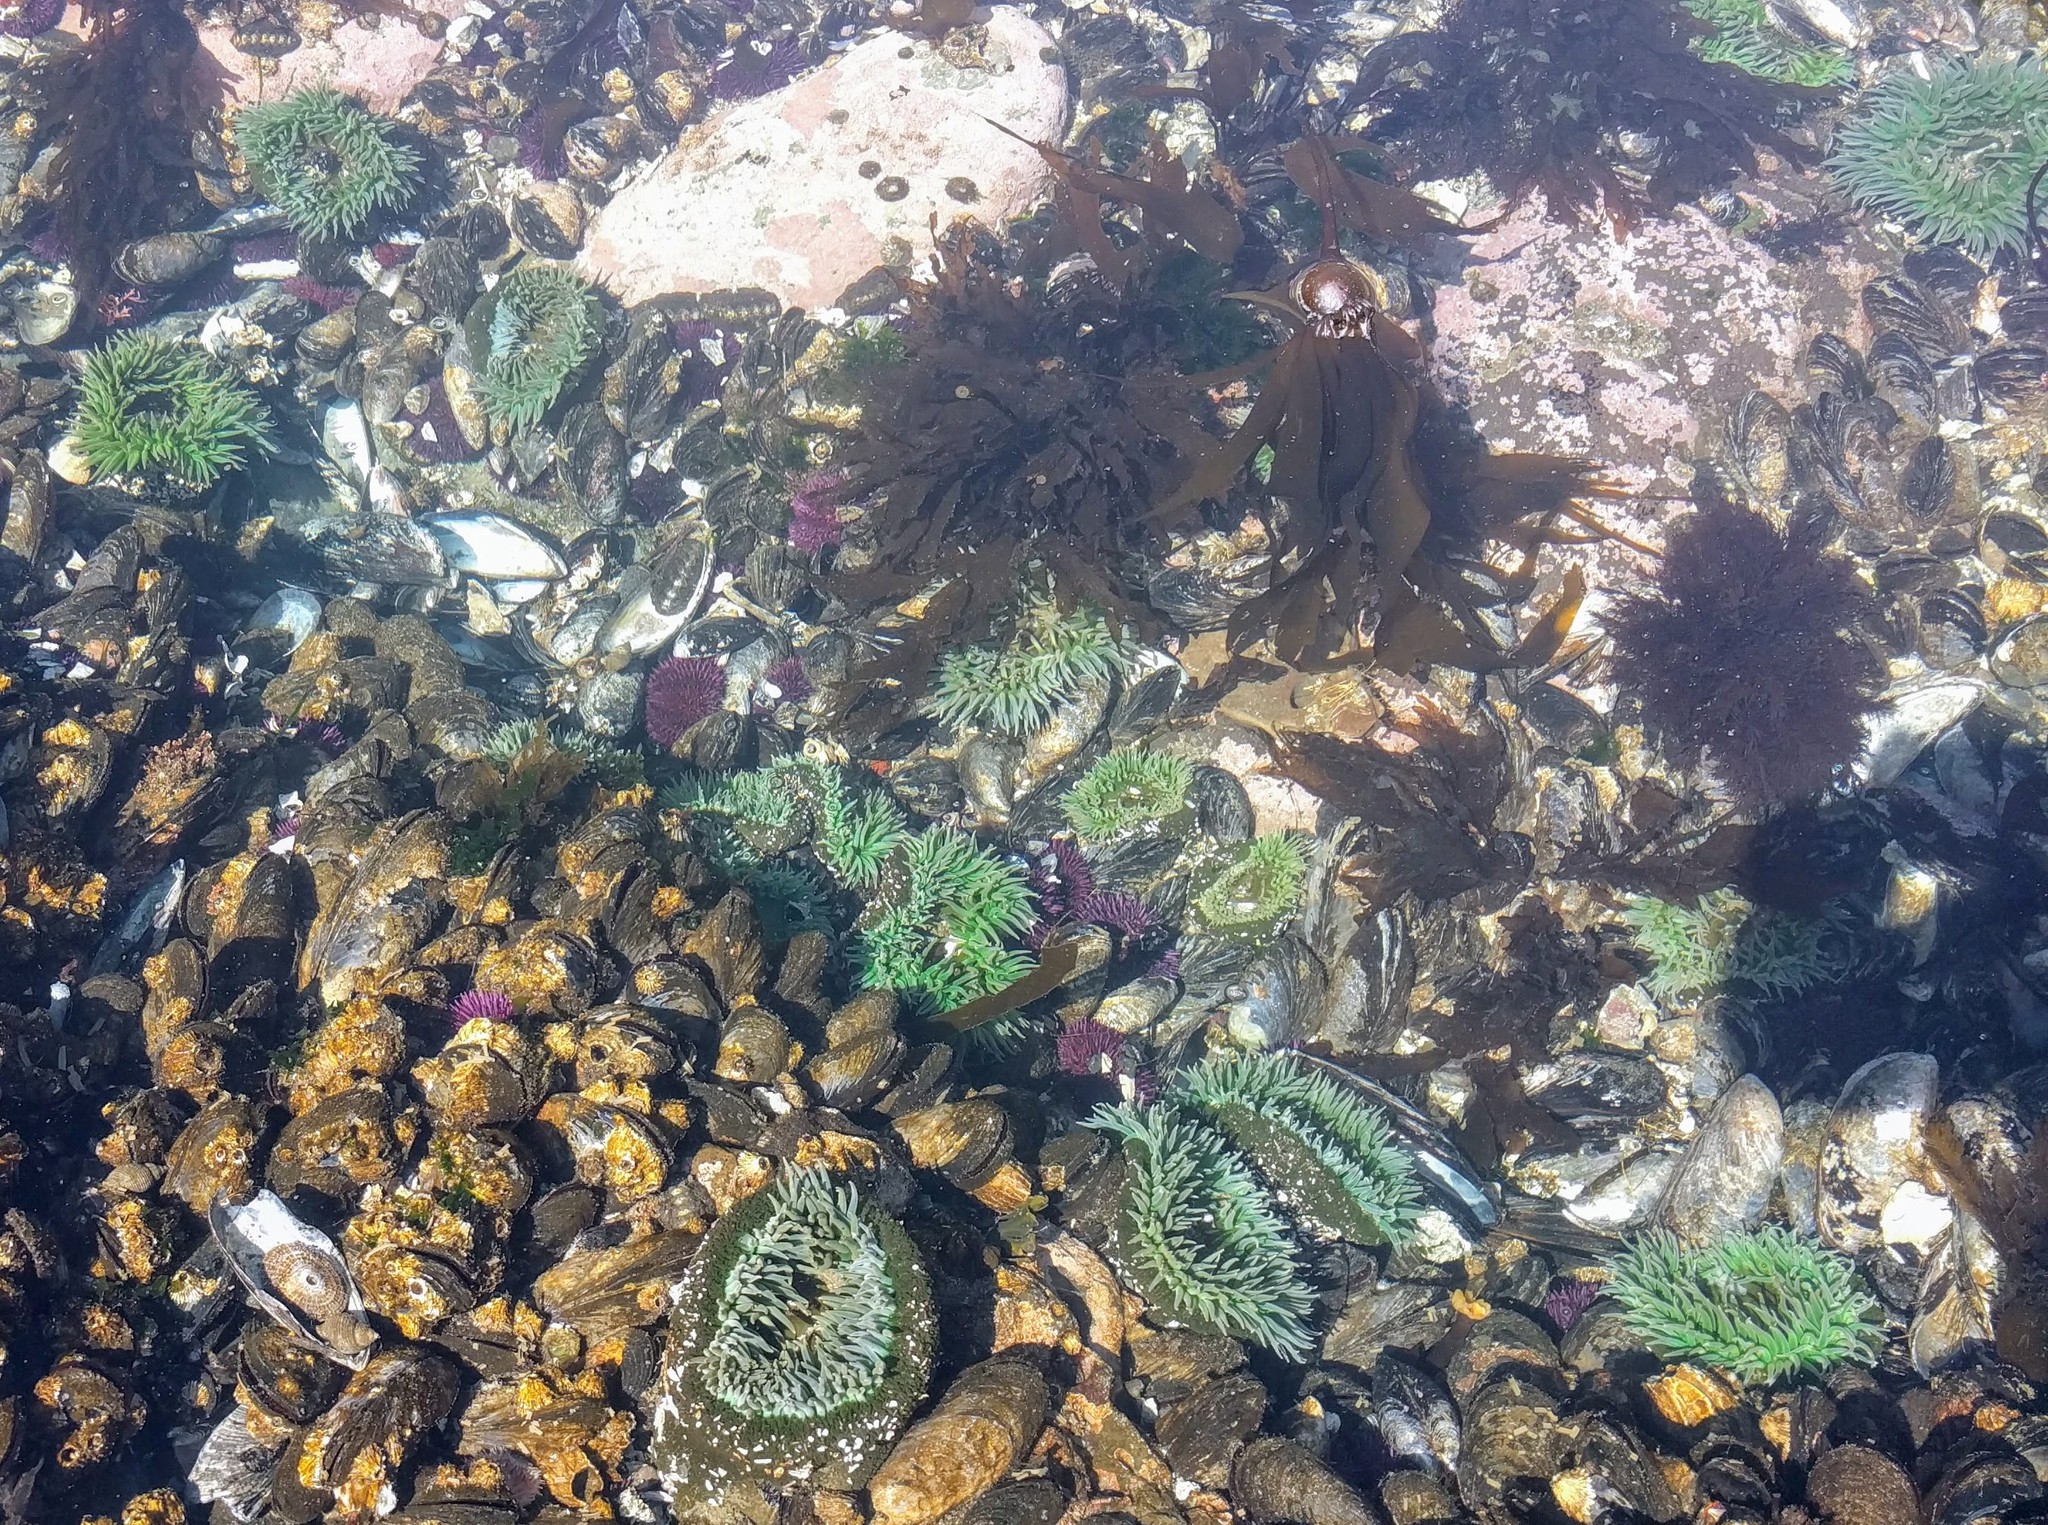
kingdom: Animalia
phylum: Cnidaria
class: Anthozoa
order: Actiniaria
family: Actiniidae
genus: Anthopleura
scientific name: Anthopleura xanthogrammica
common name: Giant green anemone
